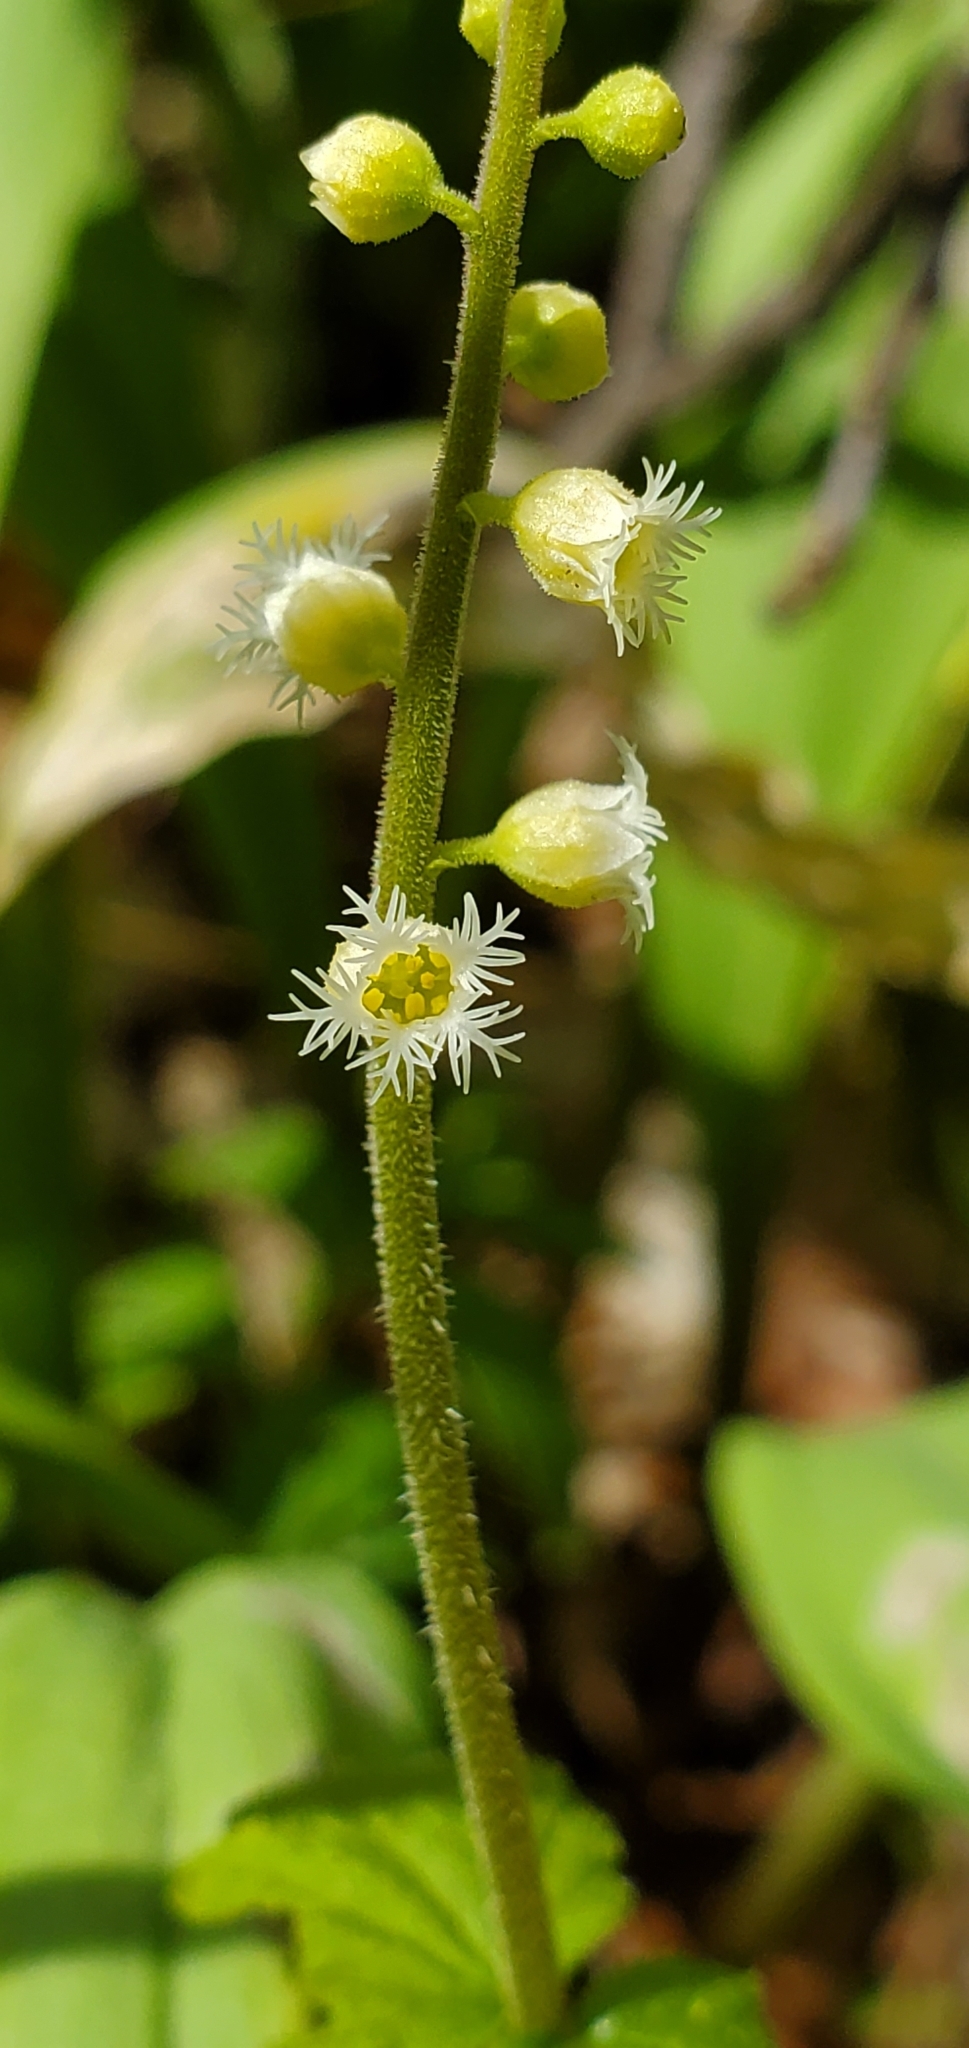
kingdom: Plantae
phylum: Tracheophyta
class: Magnoliopsida
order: Saxifragales
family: Saxifragaceae
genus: Mitella
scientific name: Mitella diphylla
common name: Coolwort
